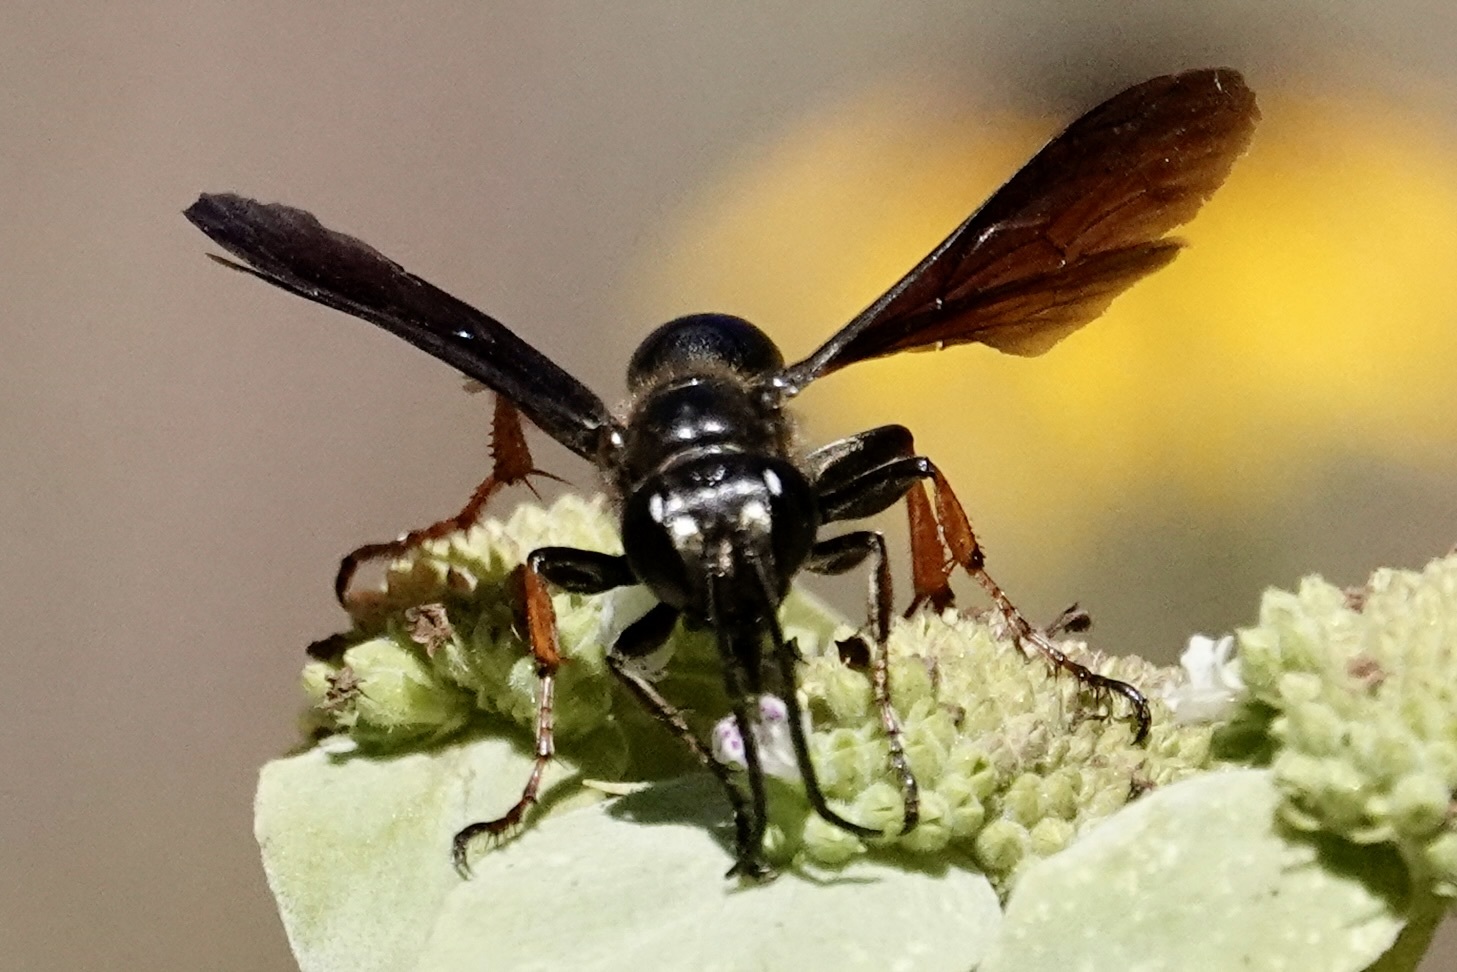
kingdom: Animalia
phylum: Arthropoda
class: Insecta
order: Hymenoptera
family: Sphecidae
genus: Isodontia
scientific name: Isodontia auripes
